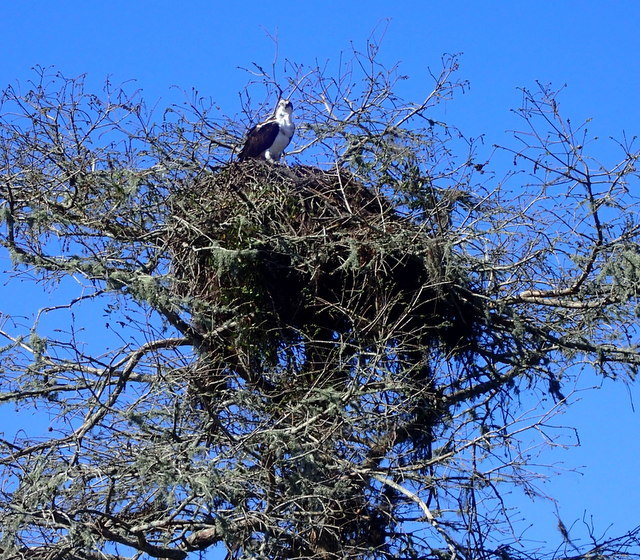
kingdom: Animalia
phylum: Chordata
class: Aves
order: Accipitriformes
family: Pandionidae
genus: Pandion
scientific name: Pandion haliaetus
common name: Osprey
